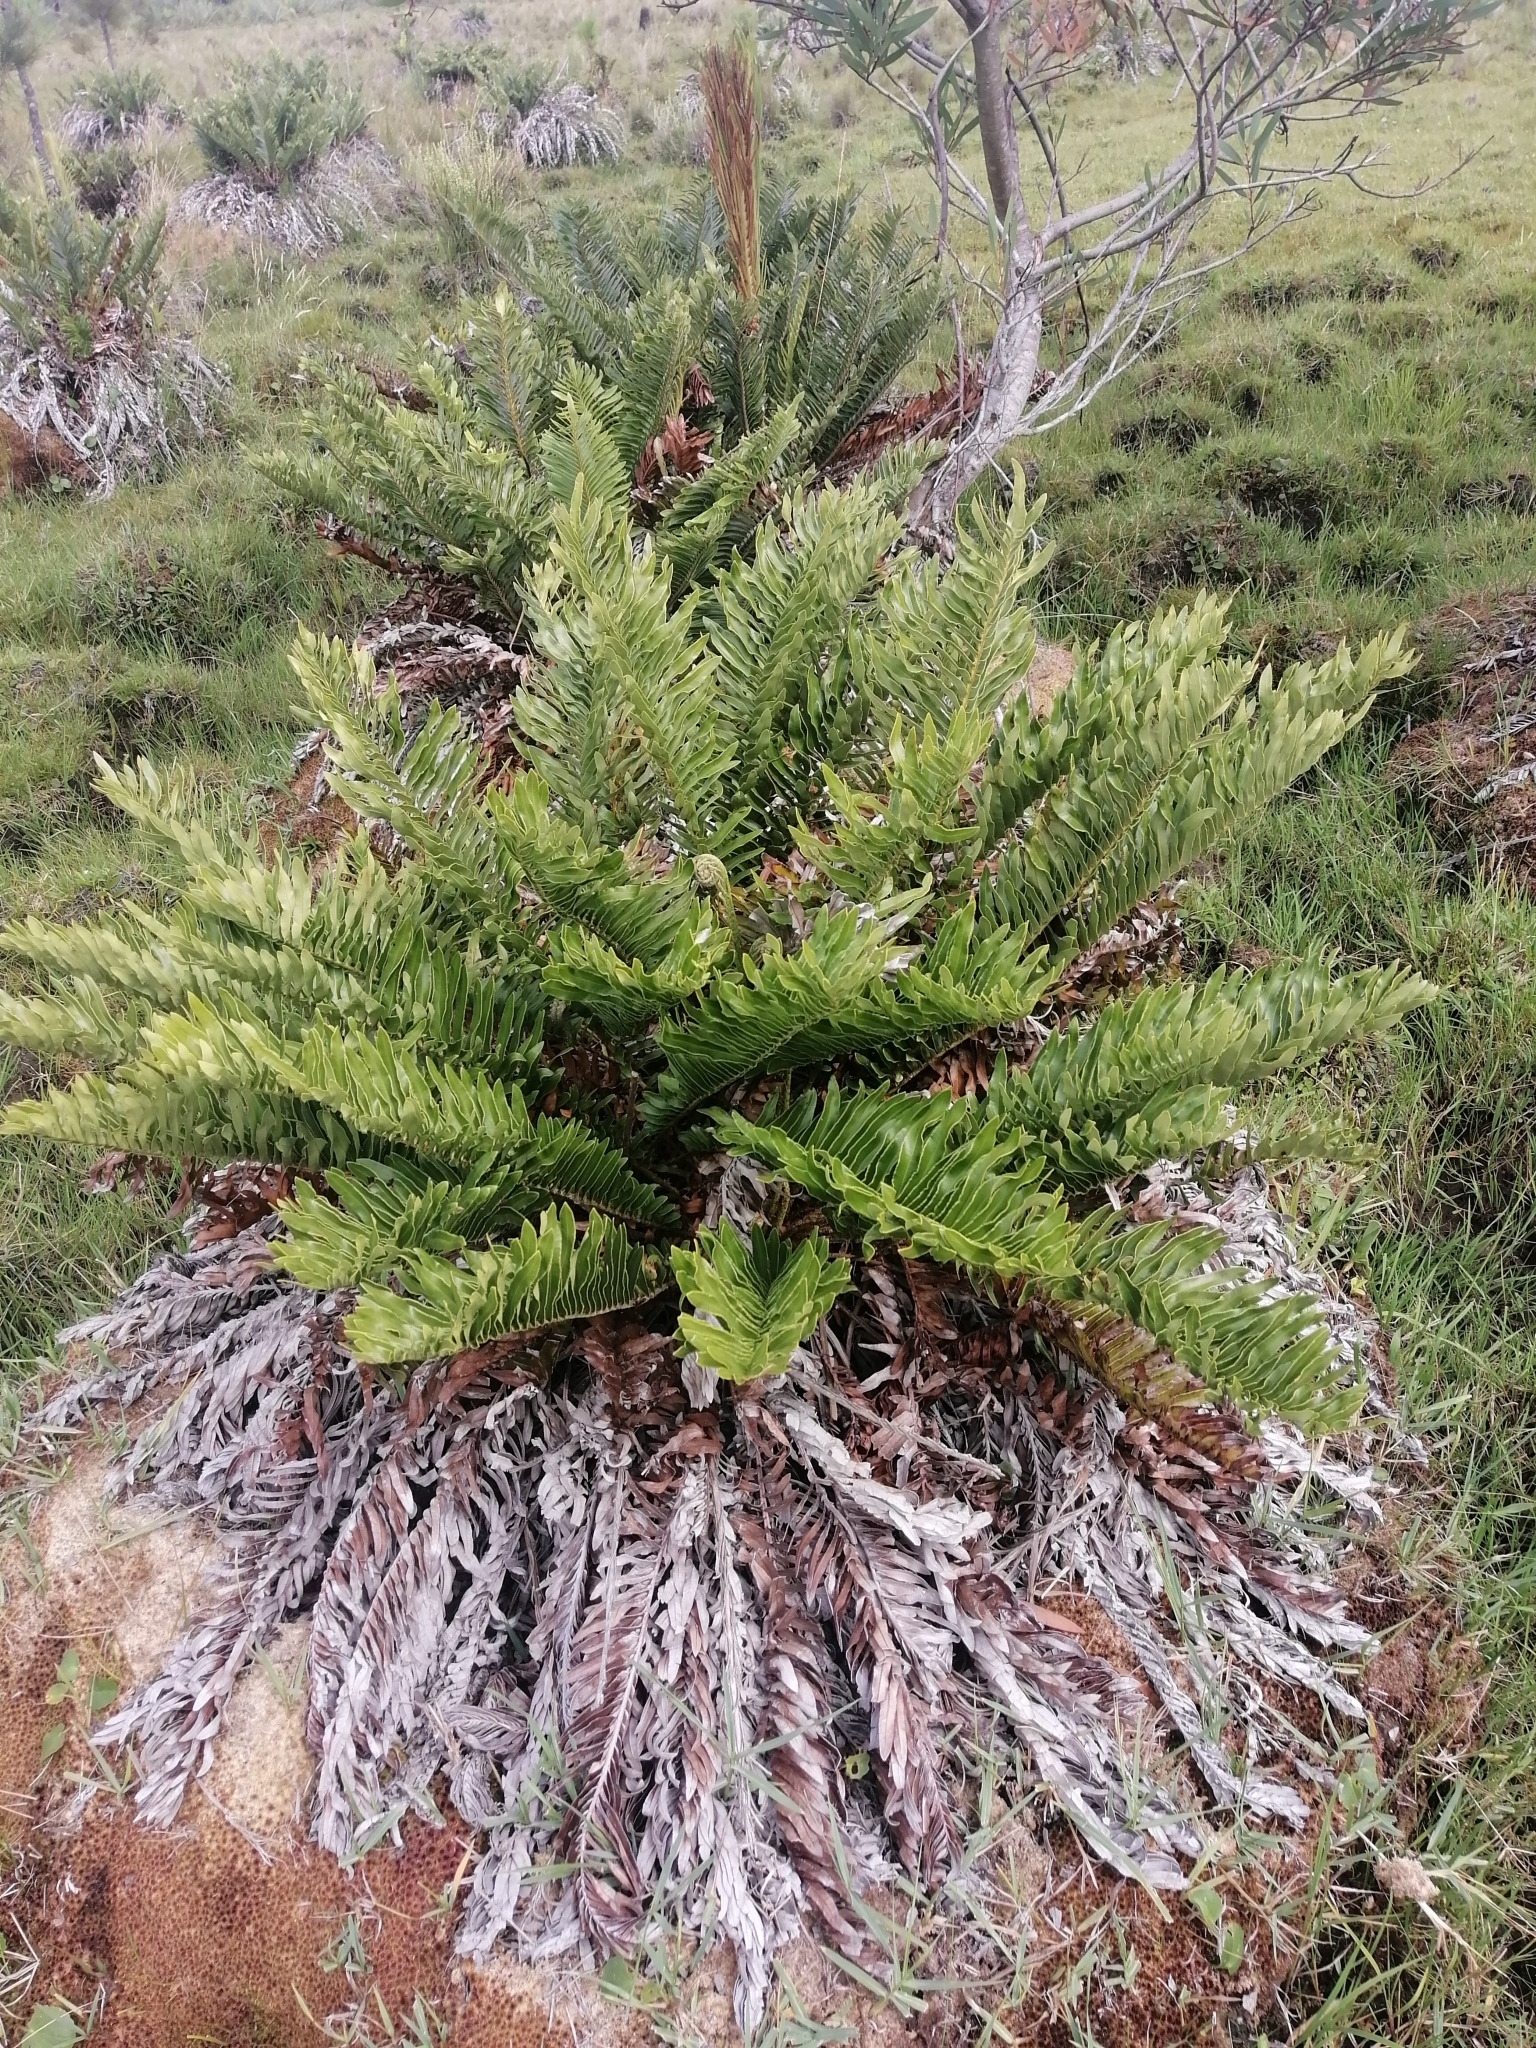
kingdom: Plantae
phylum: Tracheophyta
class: Polypodiopsida
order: Polypodiales
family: Blechnaceae
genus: Lomariocycas
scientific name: Lomariocycas schomburgkii
